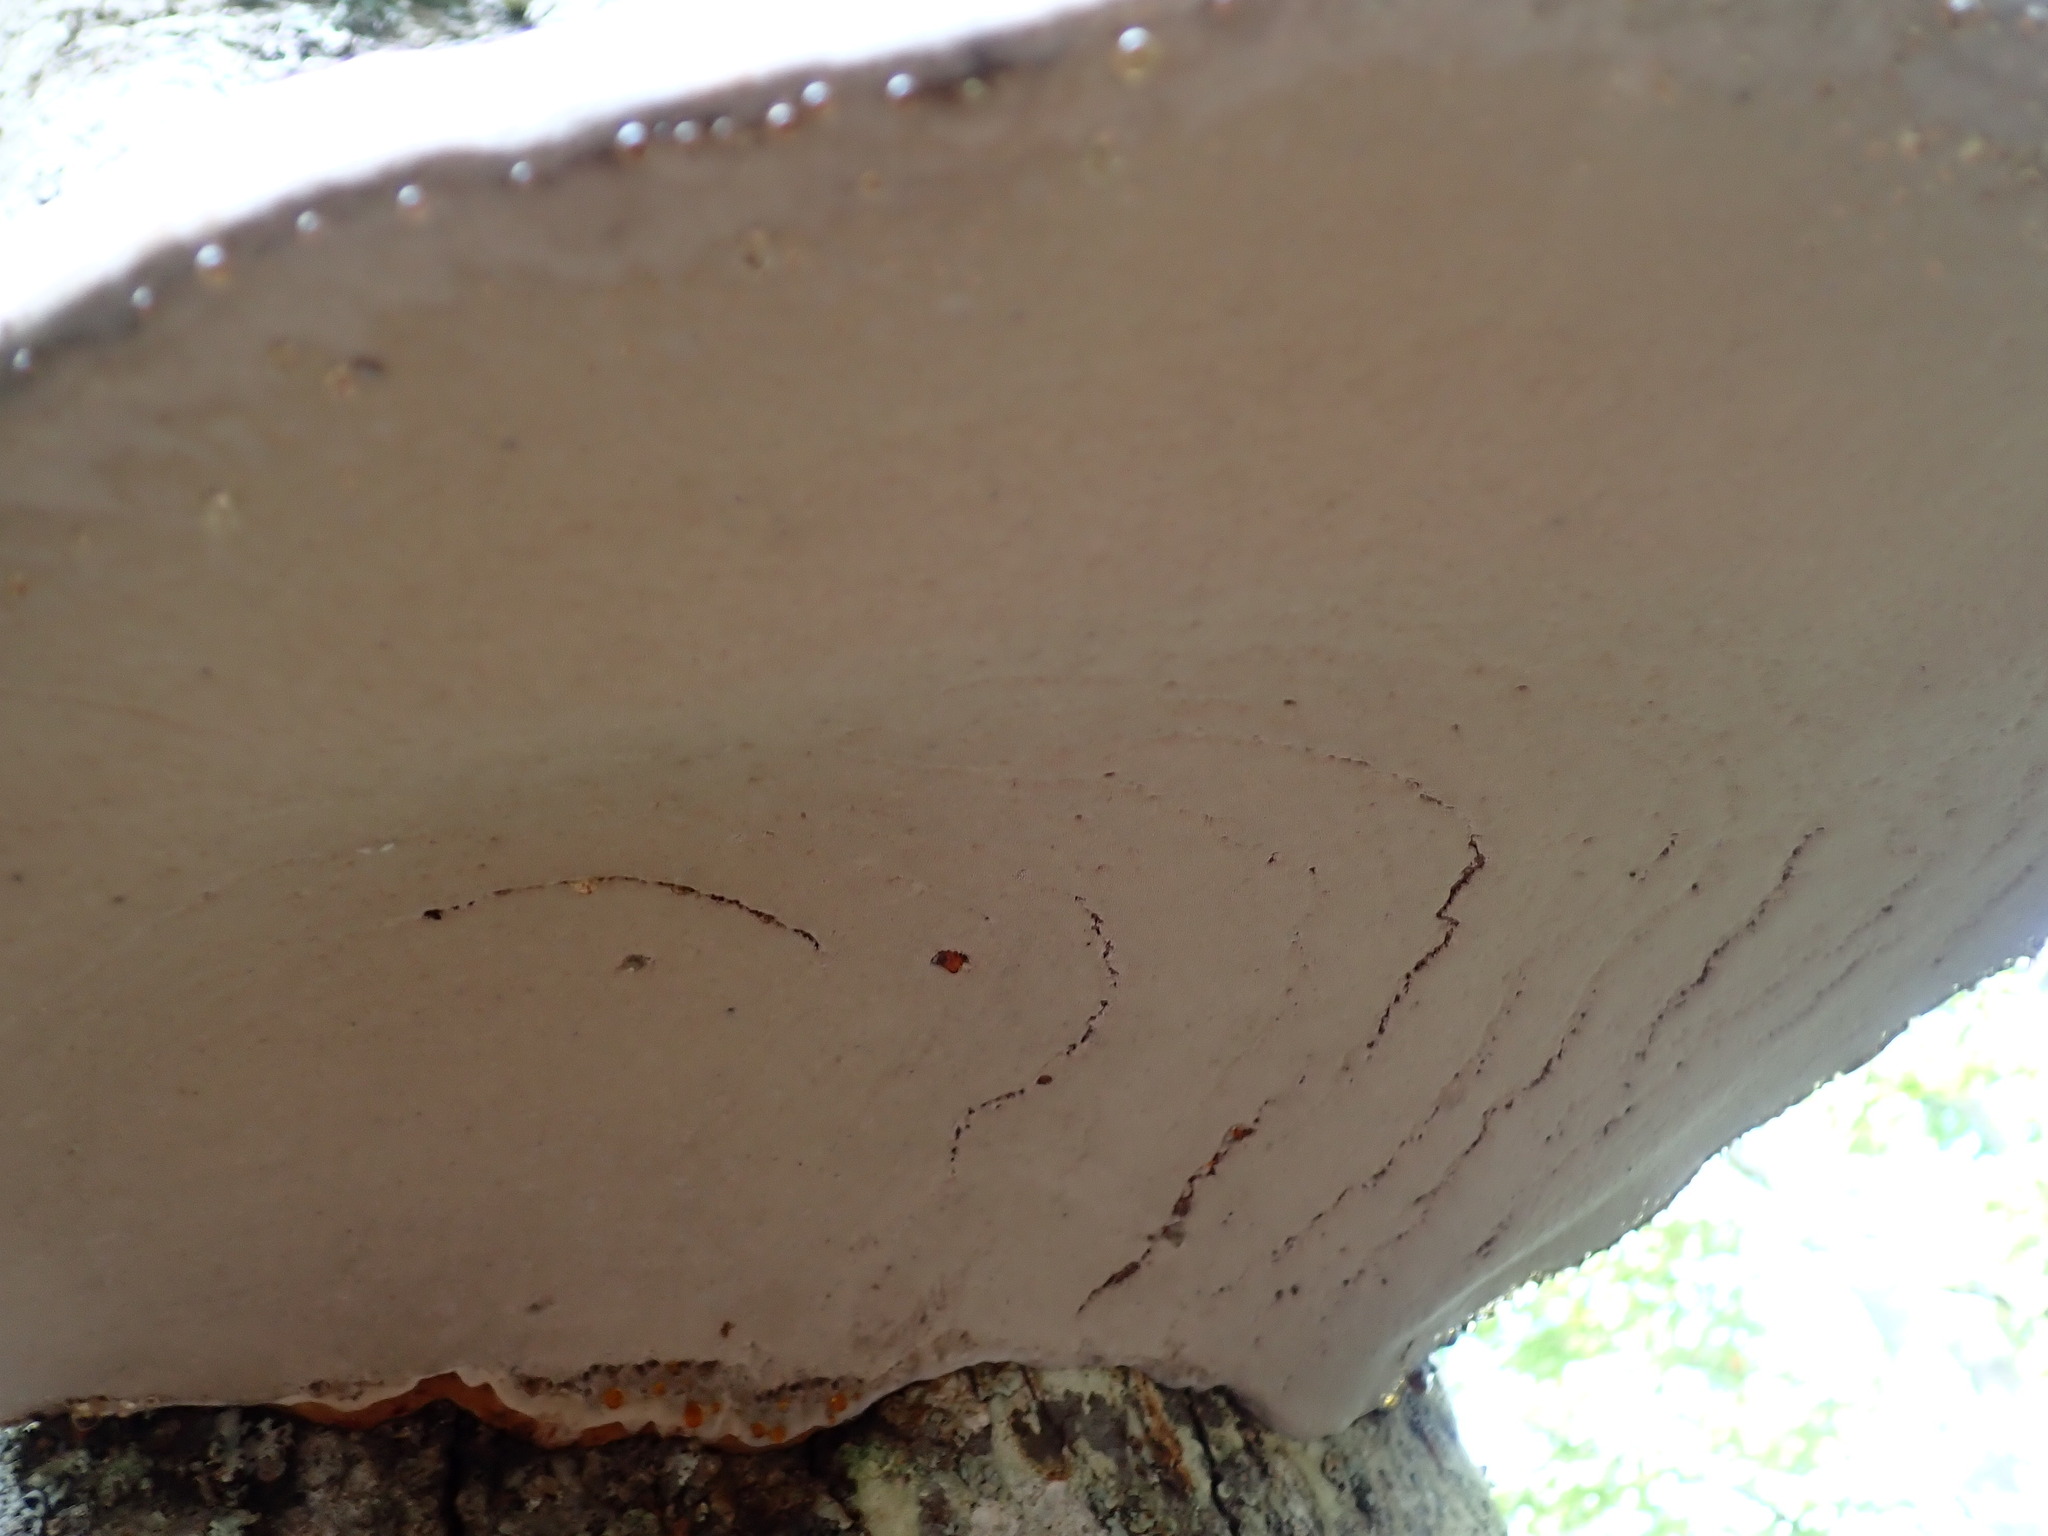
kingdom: Fungi
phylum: Basidiomycota
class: Agaricomycetes
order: Polyporales
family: Polyporaceae
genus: Fomes
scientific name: Fomes fomentarius
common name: Hoof fungus
